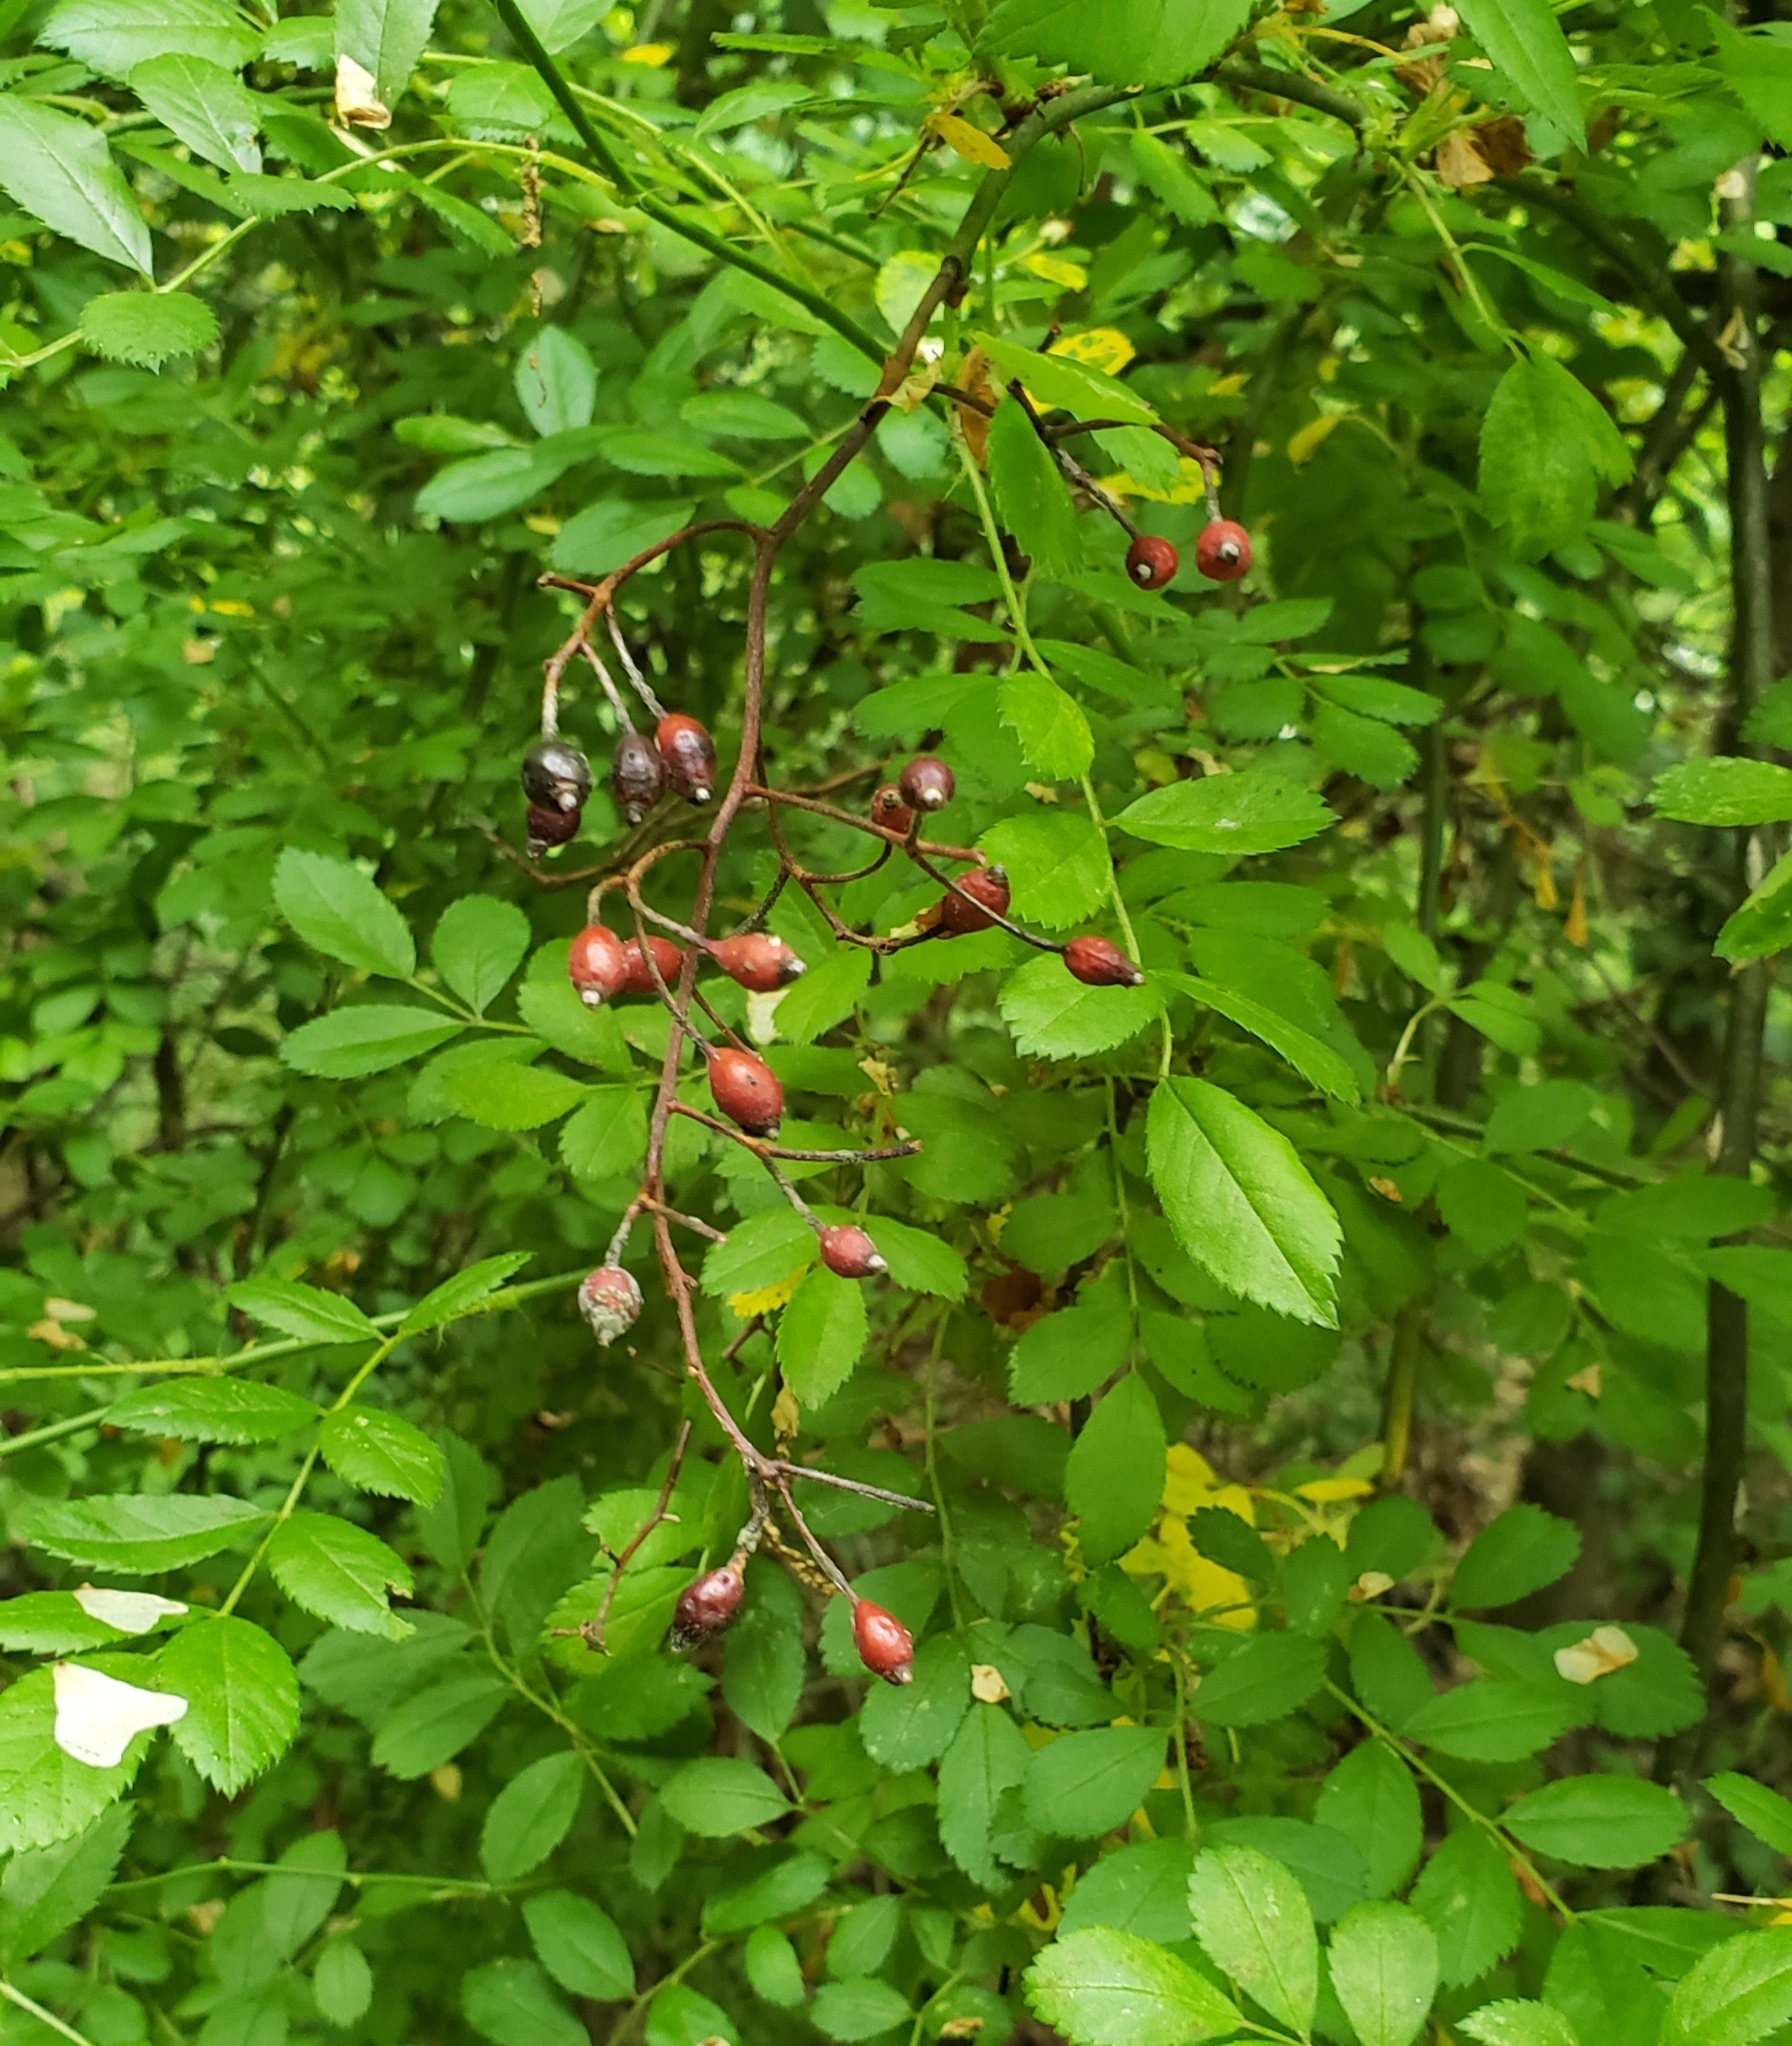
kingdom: Plantae
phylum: Tracheophyta
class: Magnoliopsida
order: Rosales
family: Rosaceae
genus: Rosa
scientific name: Rosa multiflora
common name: Multiflora rose
